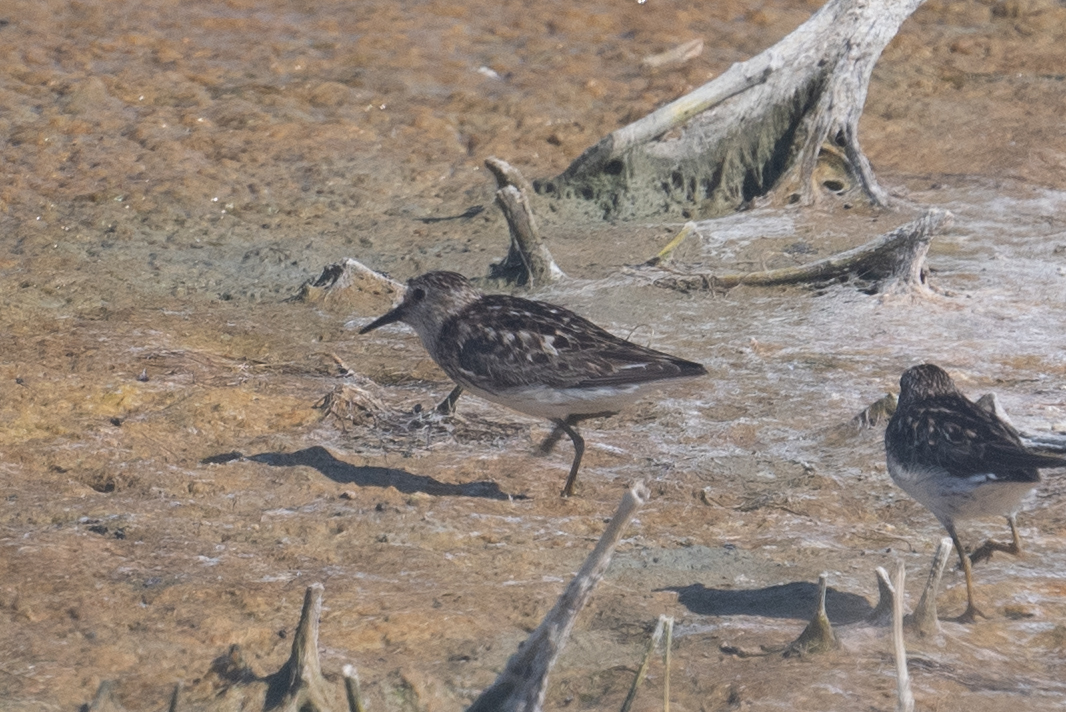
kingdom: Animalia
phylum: Chordata
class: Aves
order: Charadriiformes
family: Scolopacidae
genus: Calidris
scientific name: Calidris minutilla
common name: Least sandpiper
